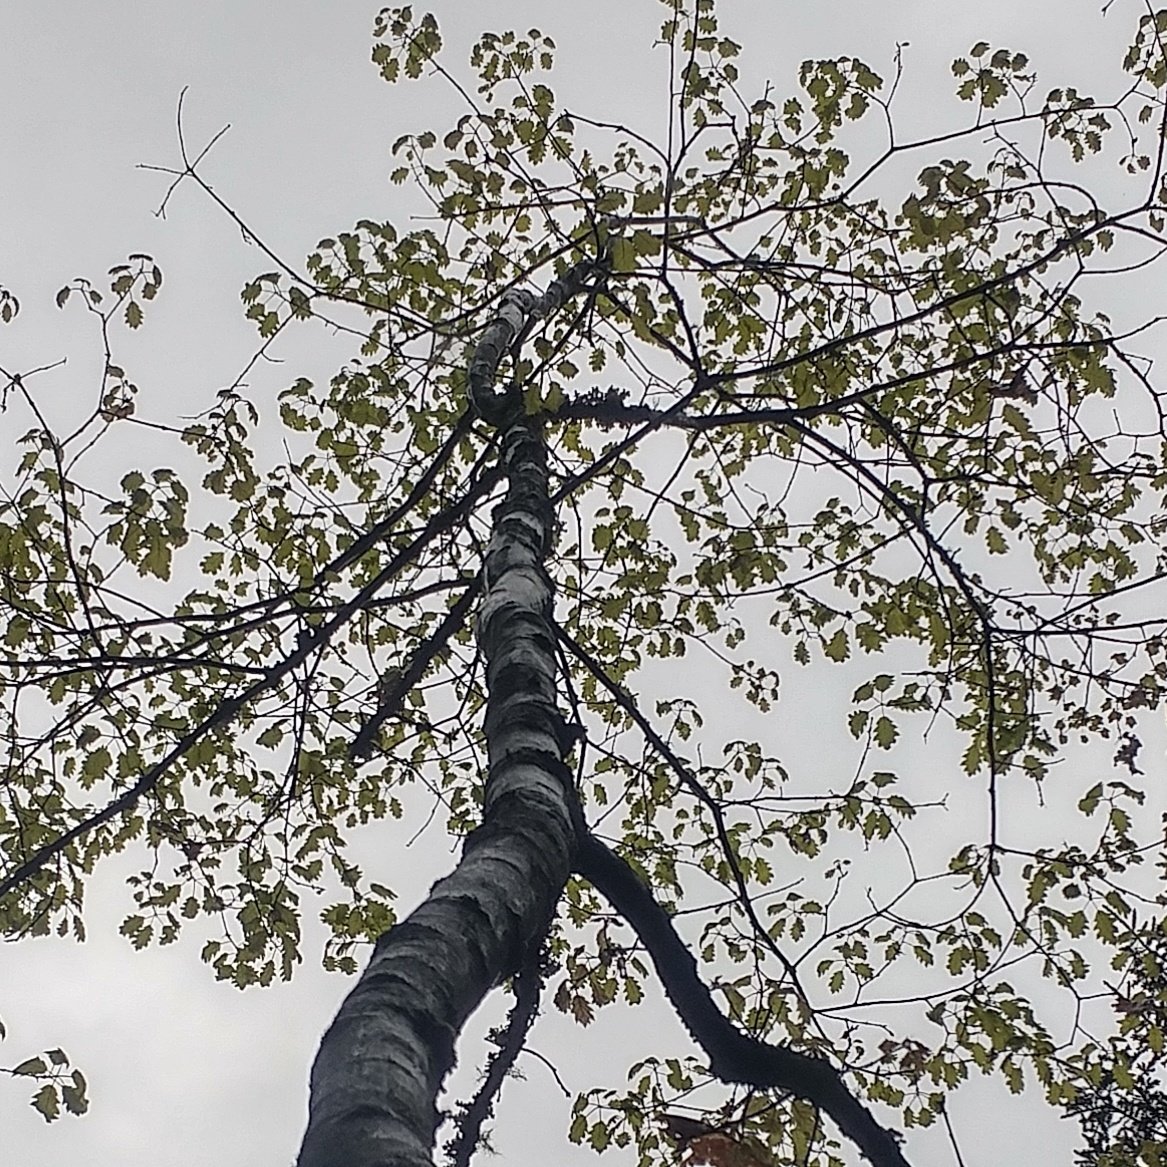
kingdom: Plantae
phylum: Tracheophyta
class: Magnoliopsida
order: Fagales
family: Fagaceae
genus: Quercus
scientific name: Quercus rubra
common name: Red oak
